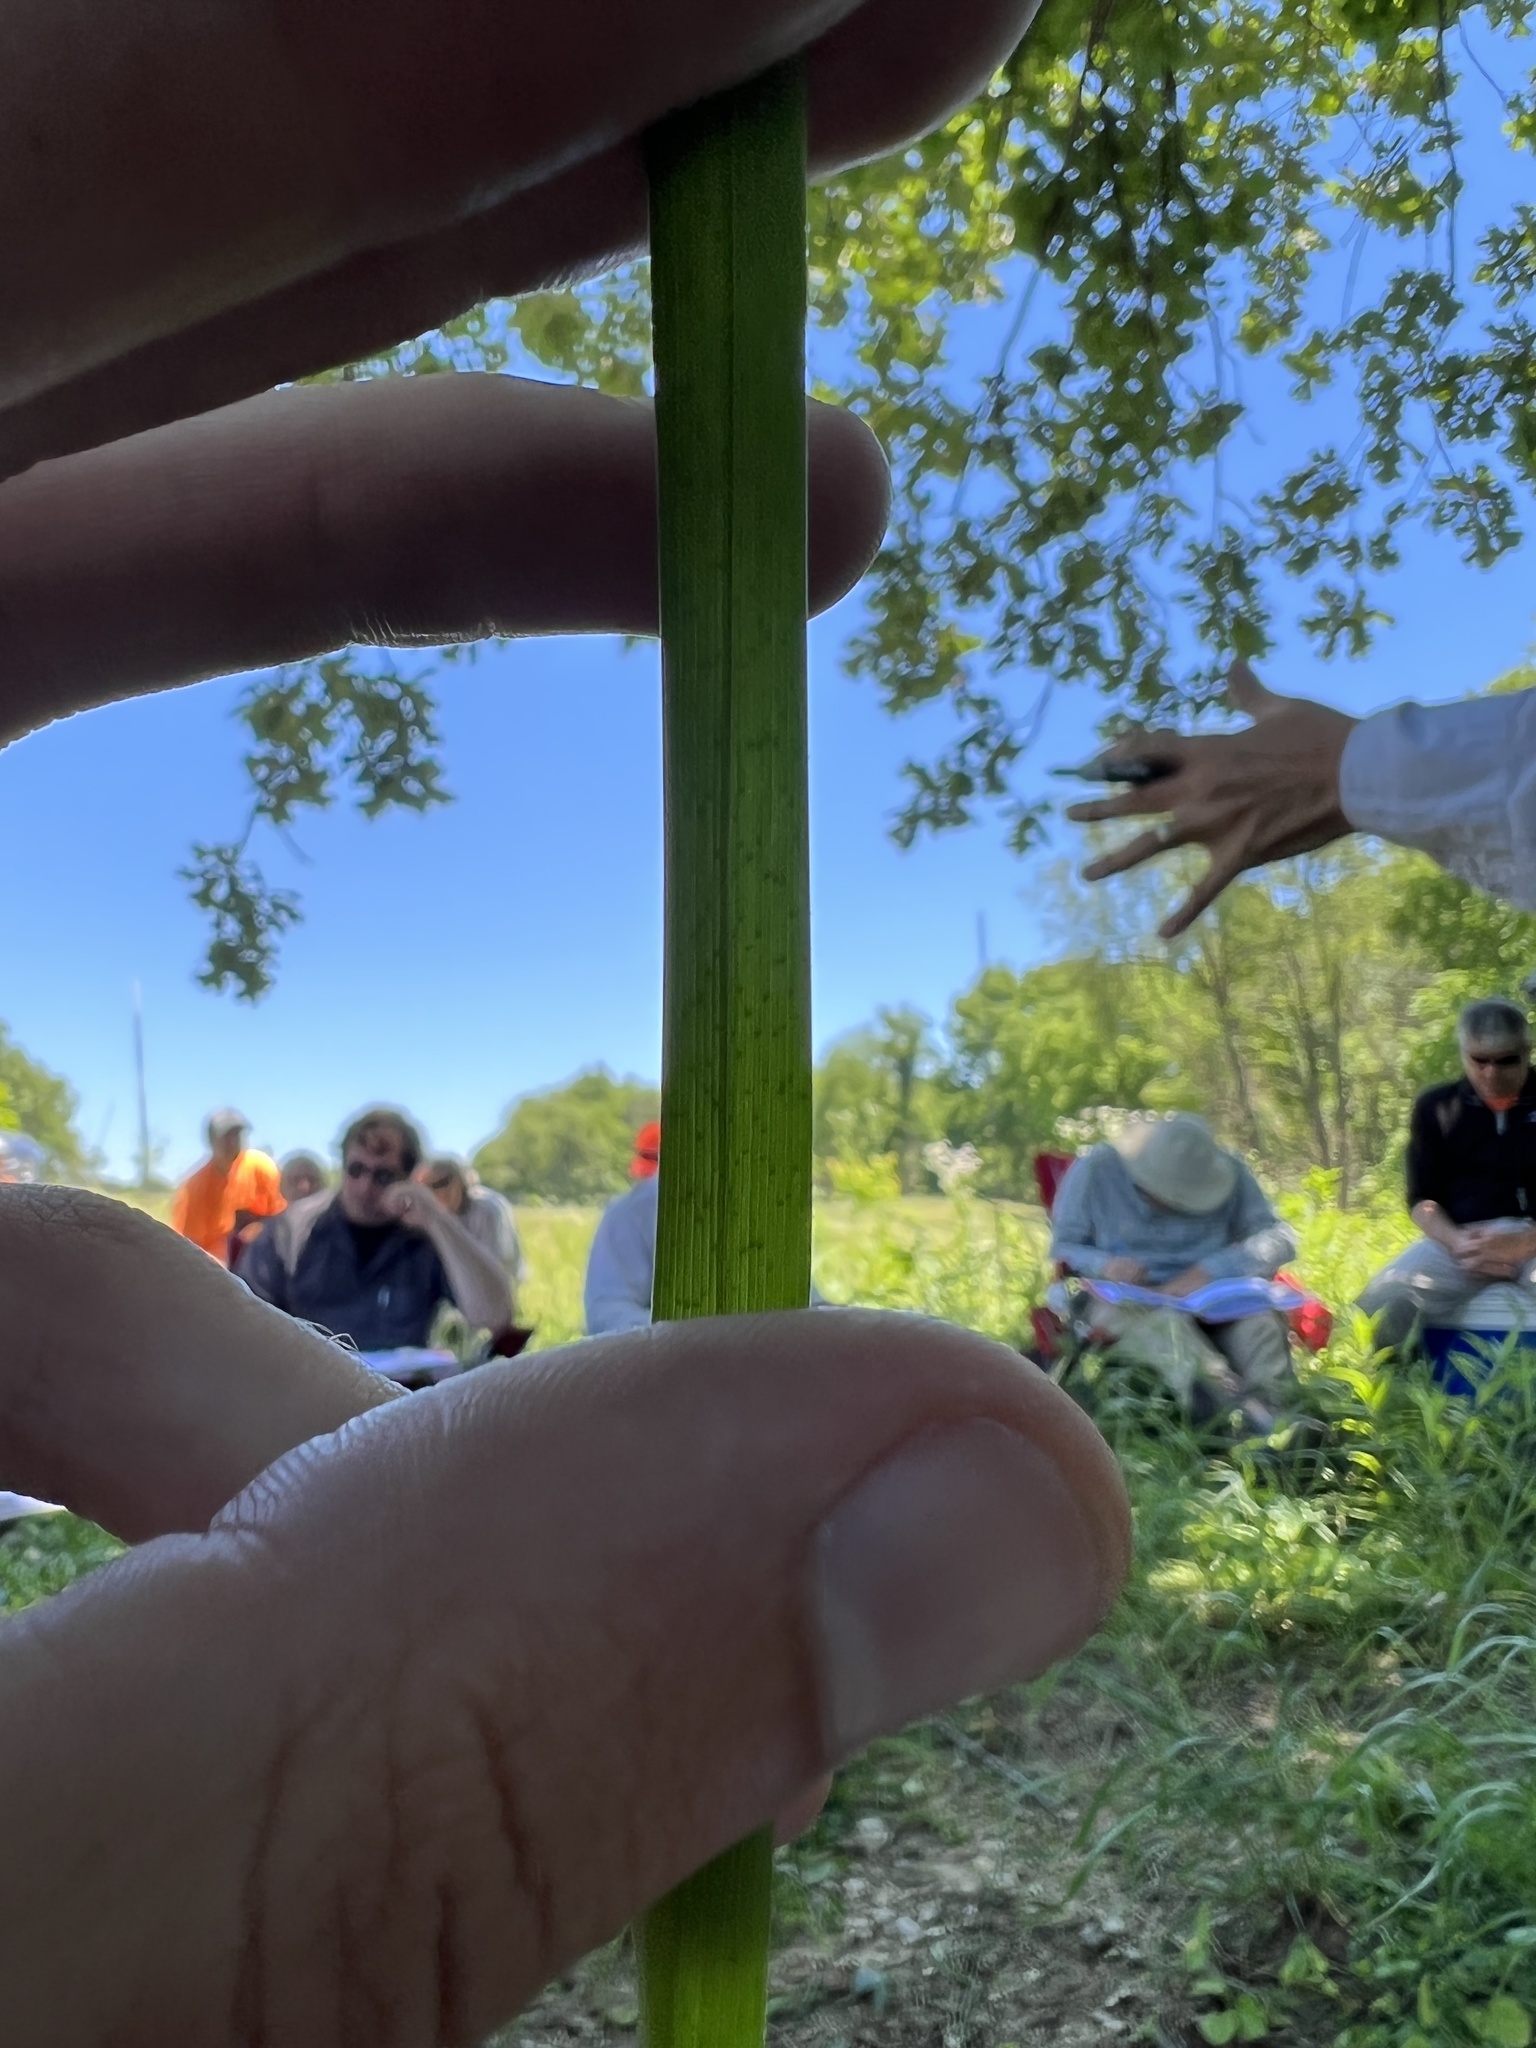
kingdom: Plantae
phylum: Tracheophyta
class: Liliopsida
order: Poales
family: Cyperaceae
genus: Carex
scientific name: Carex utriculata
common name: Beaked sedge
